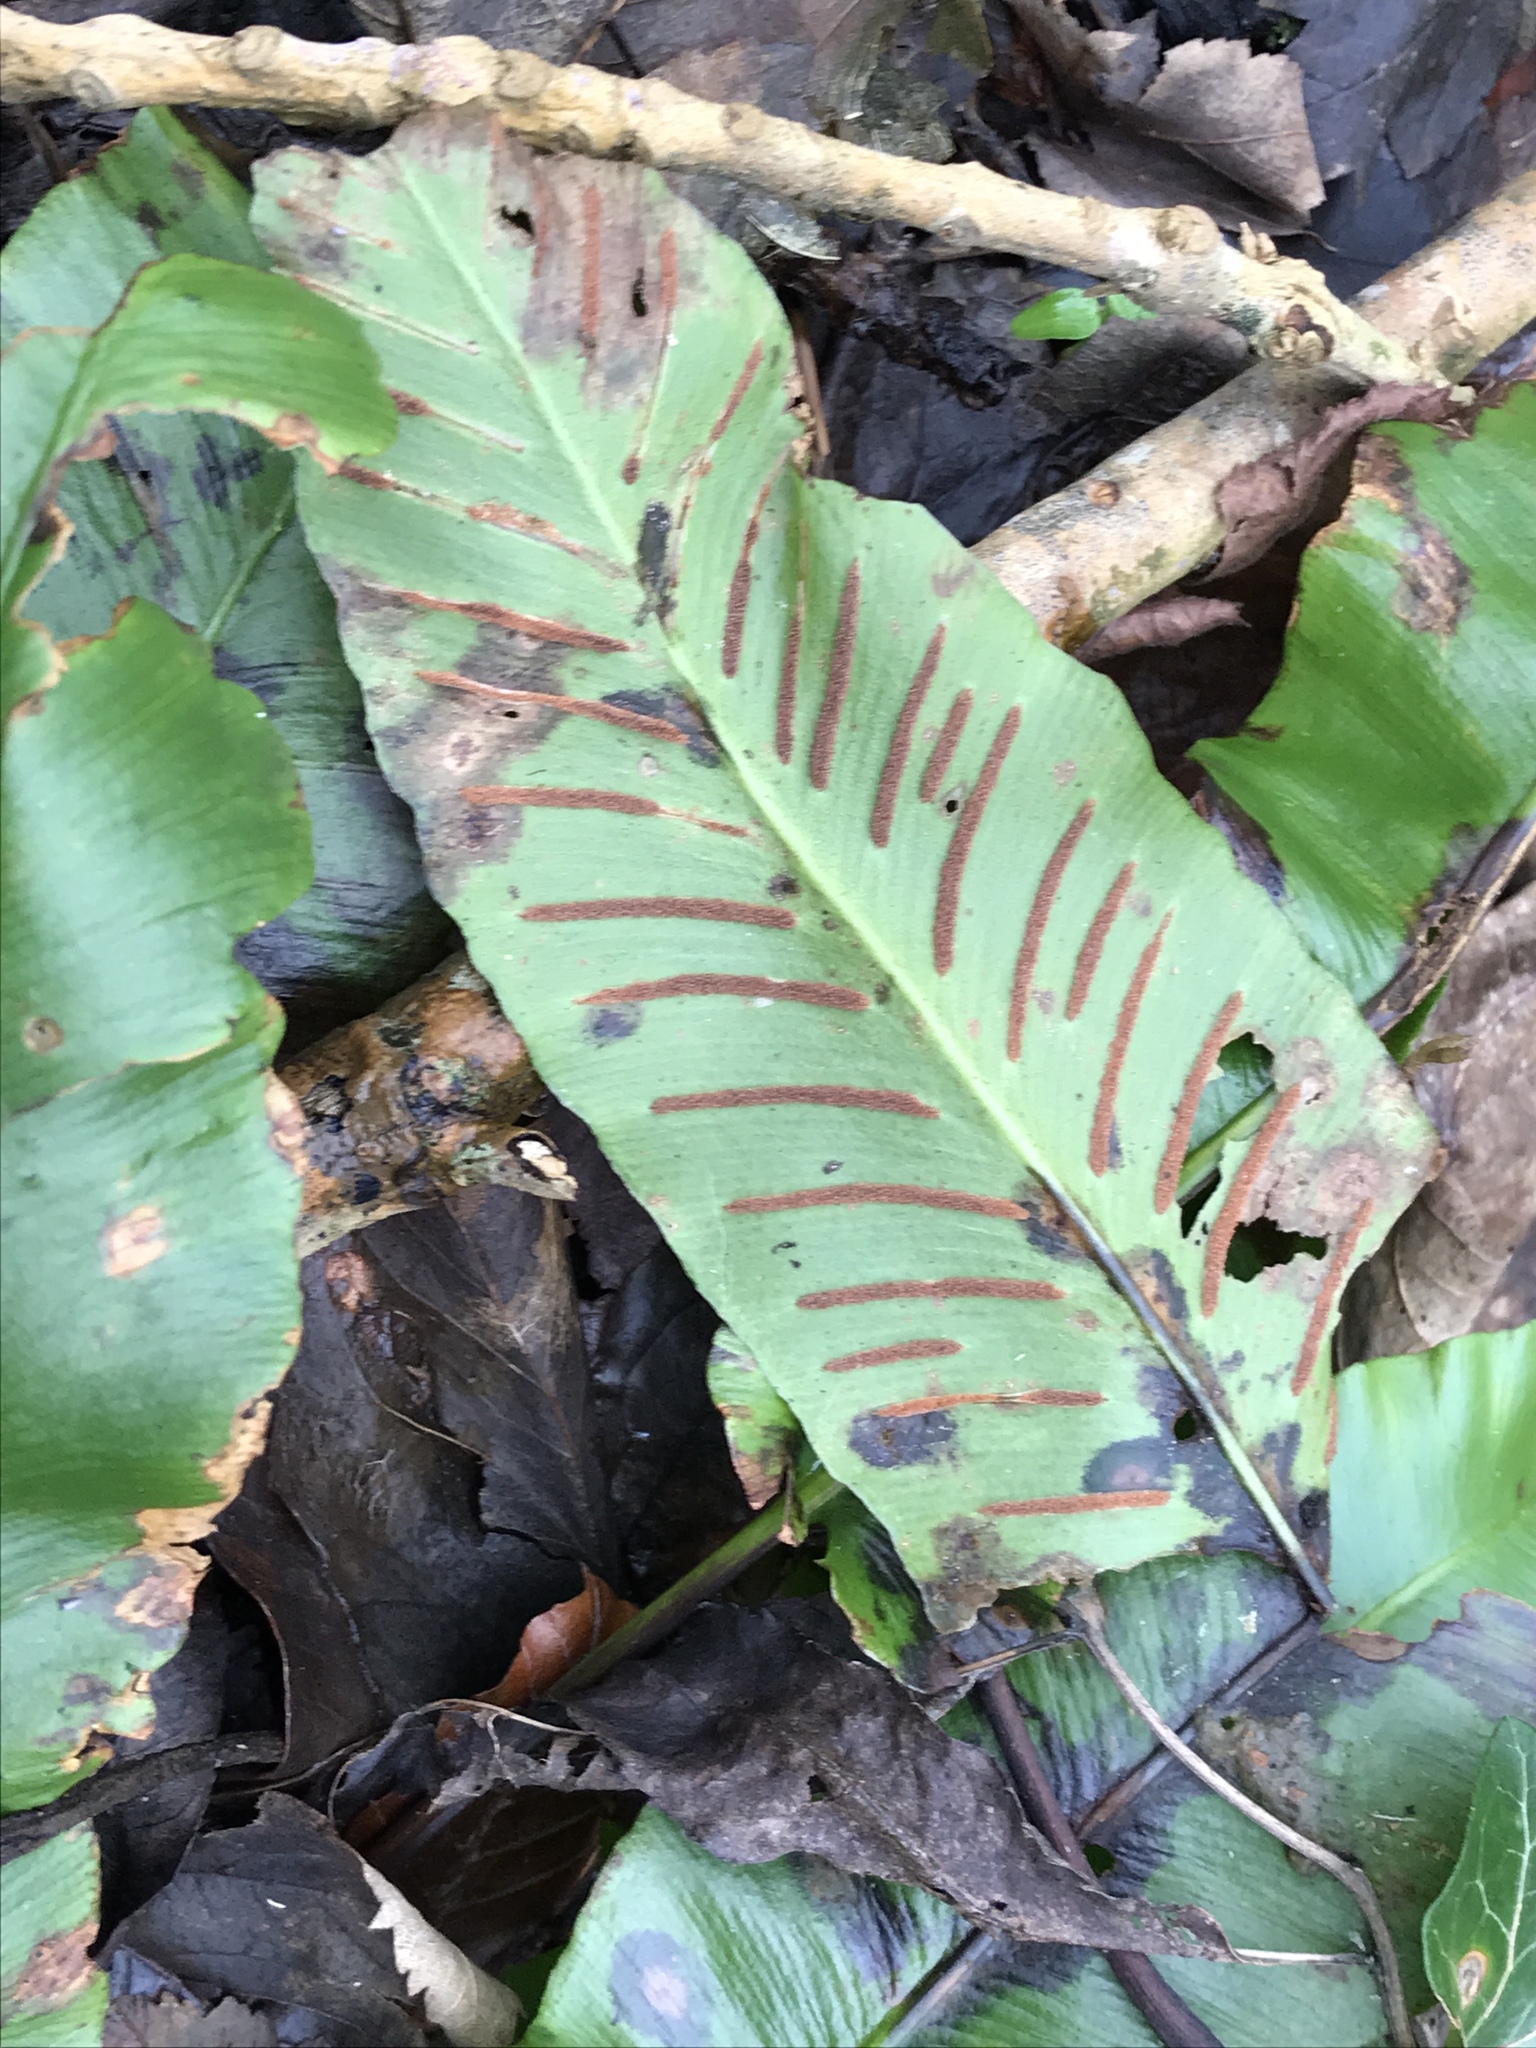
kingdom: Plantae
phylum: Tracheophyta
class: Polypodiopsida
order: Polypodiales
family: Aspleniaceae
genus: Asplenium
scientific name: Asplenium scolopendrium
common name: Hart's-tongue fern
